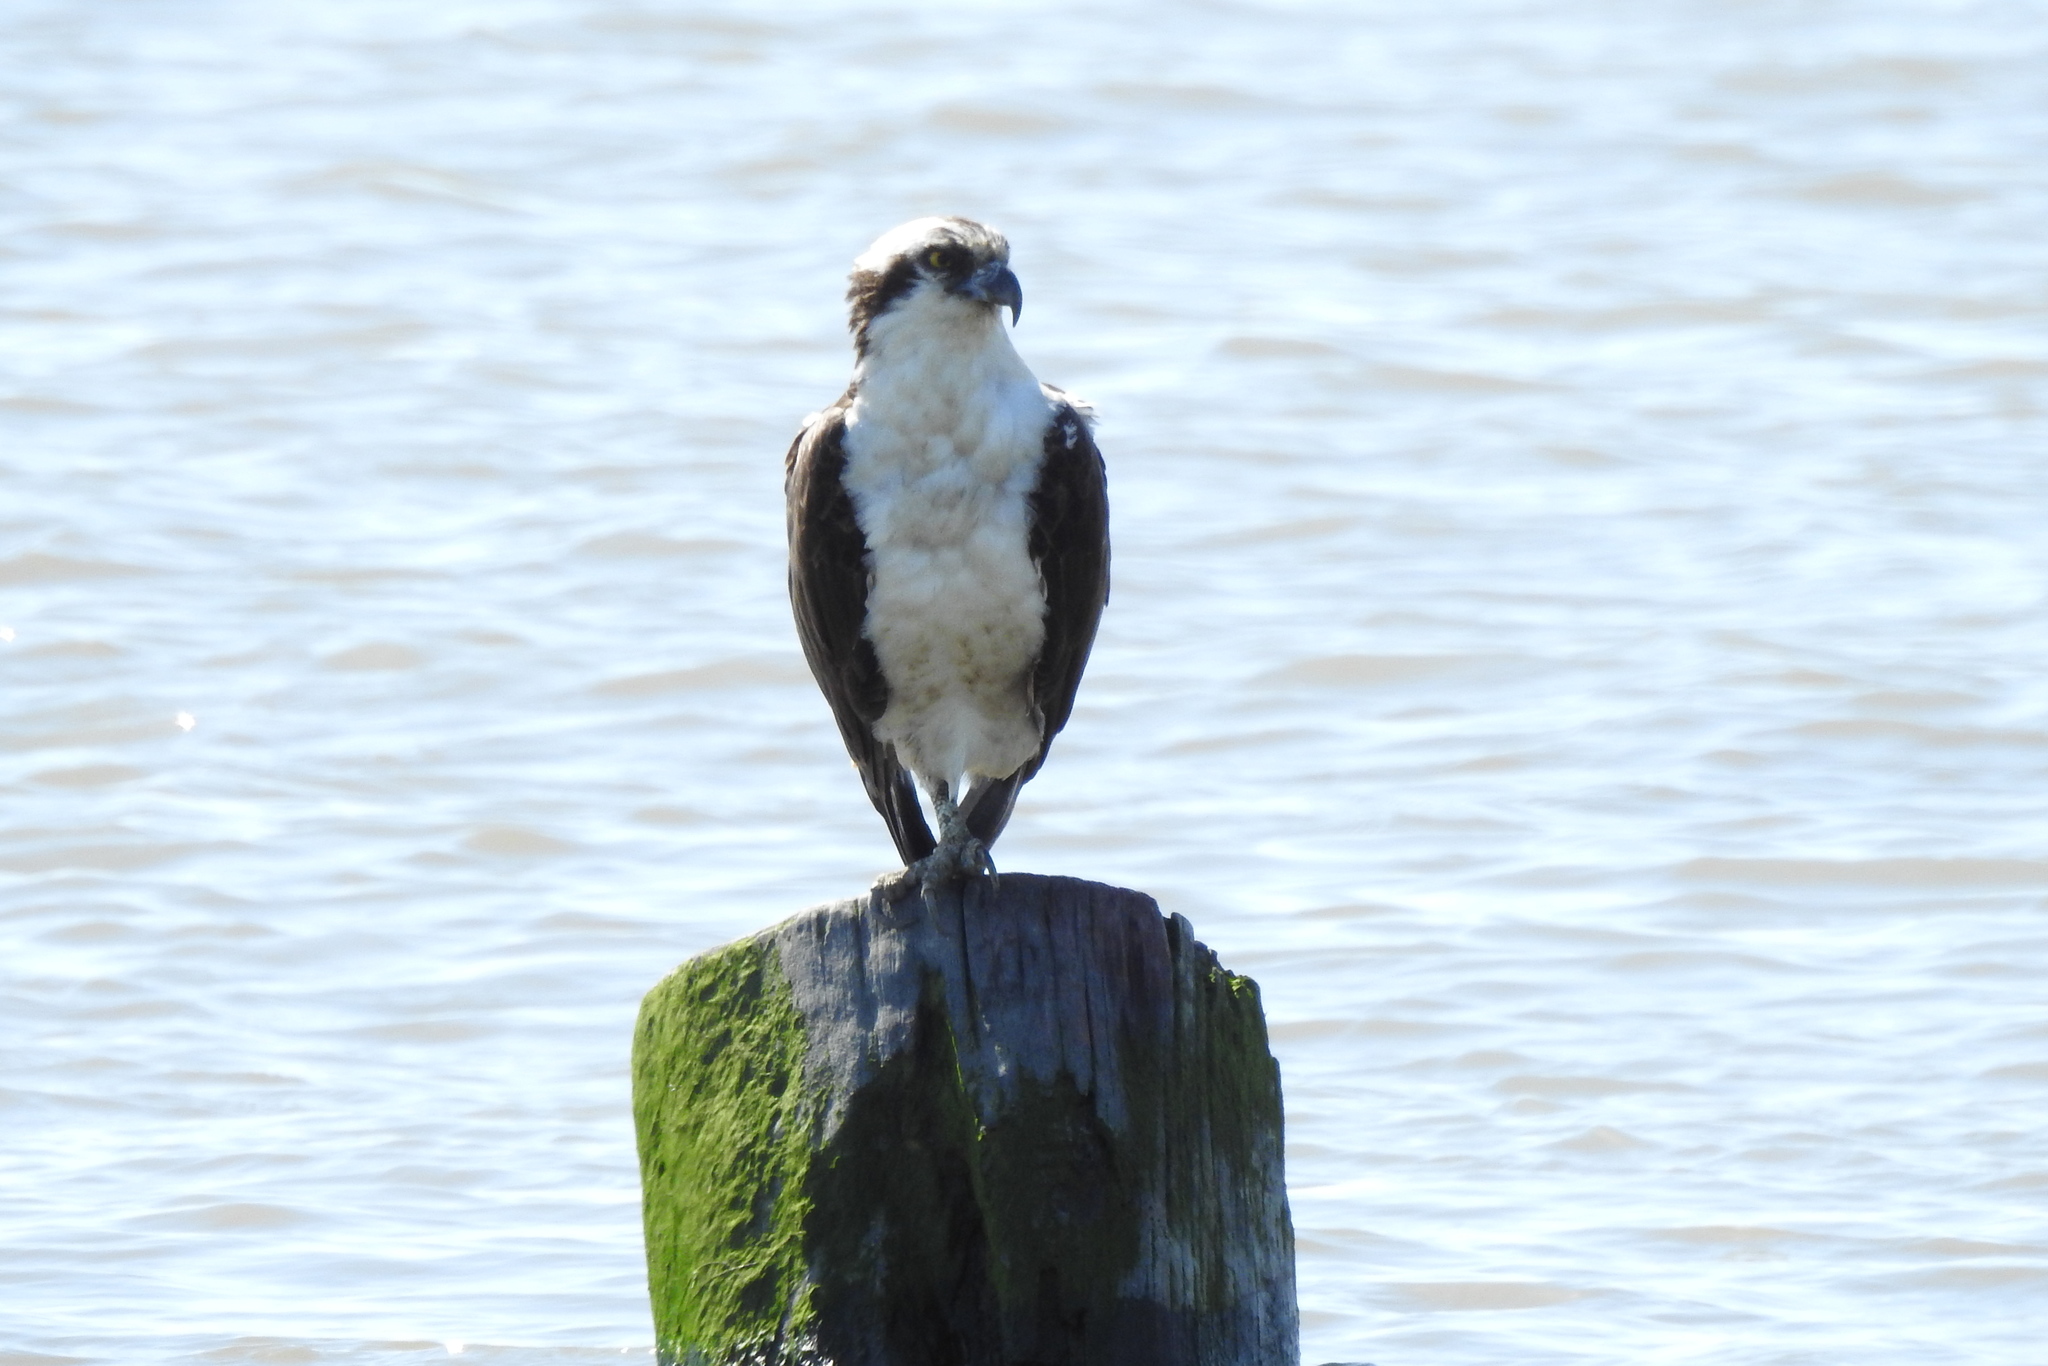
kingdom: Animalia
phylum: Chordata
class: Aves
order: Accipitriformes
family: Pandionidae
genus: Pandion
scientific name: Pandion haliaetus
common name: Osprey
